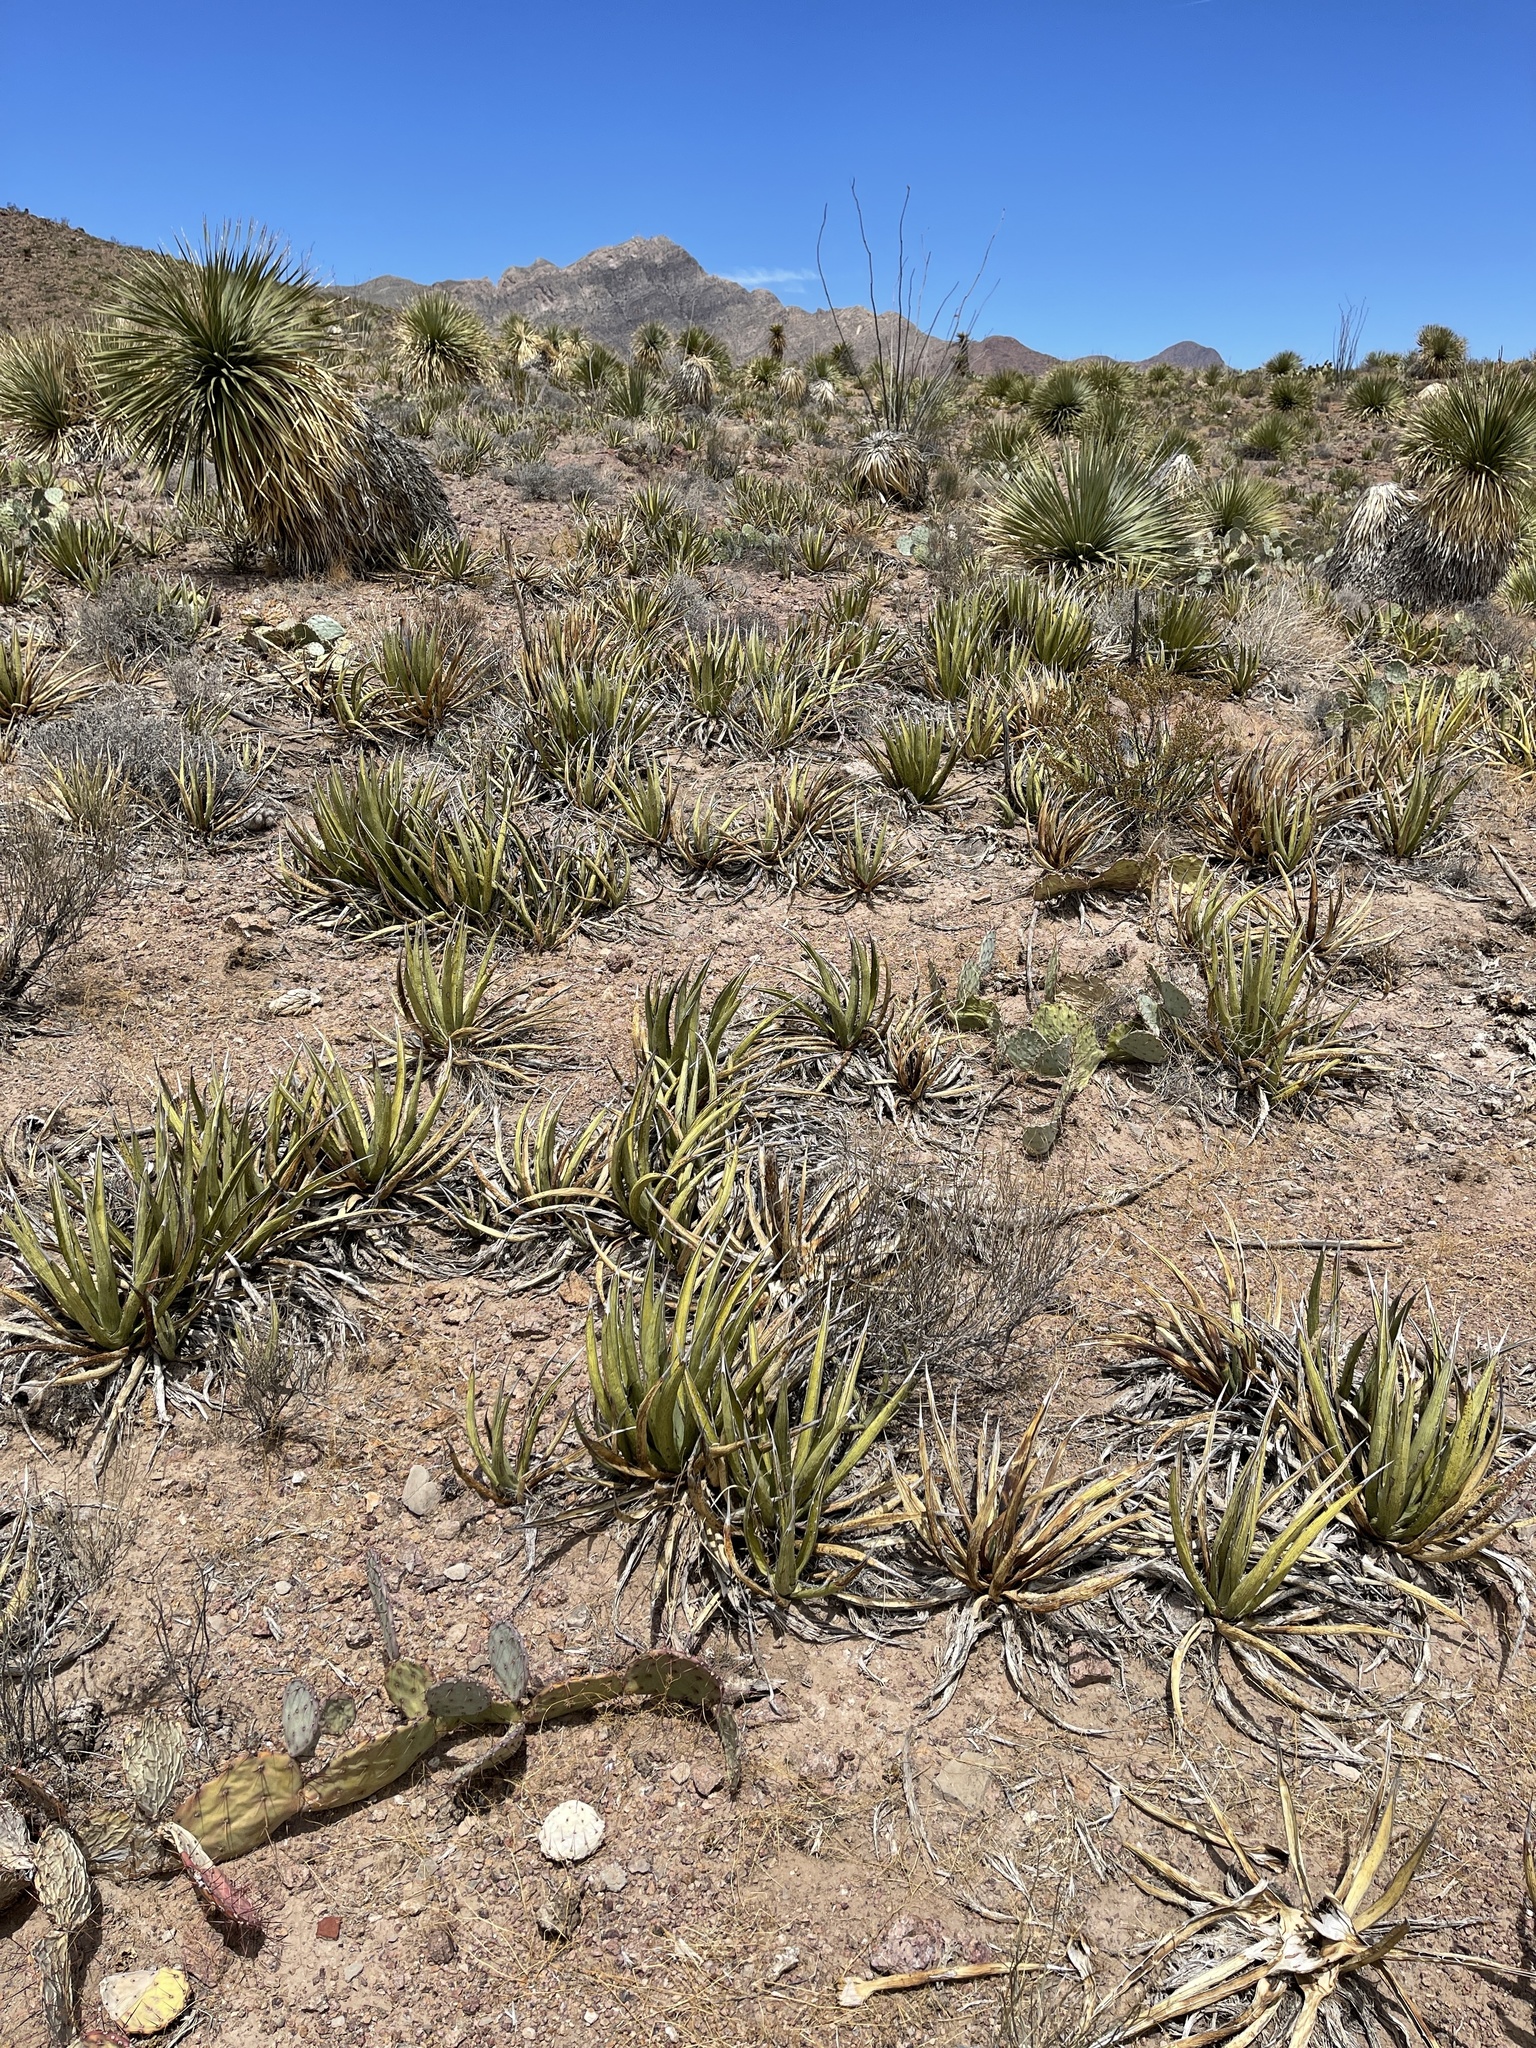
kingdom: Plantae
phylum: Tracheophyta
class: Liliopsida
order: Asparagales
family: Asparagaceae
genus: Agave
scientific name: Agave lechuguilla
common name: Lecheguilla agave
